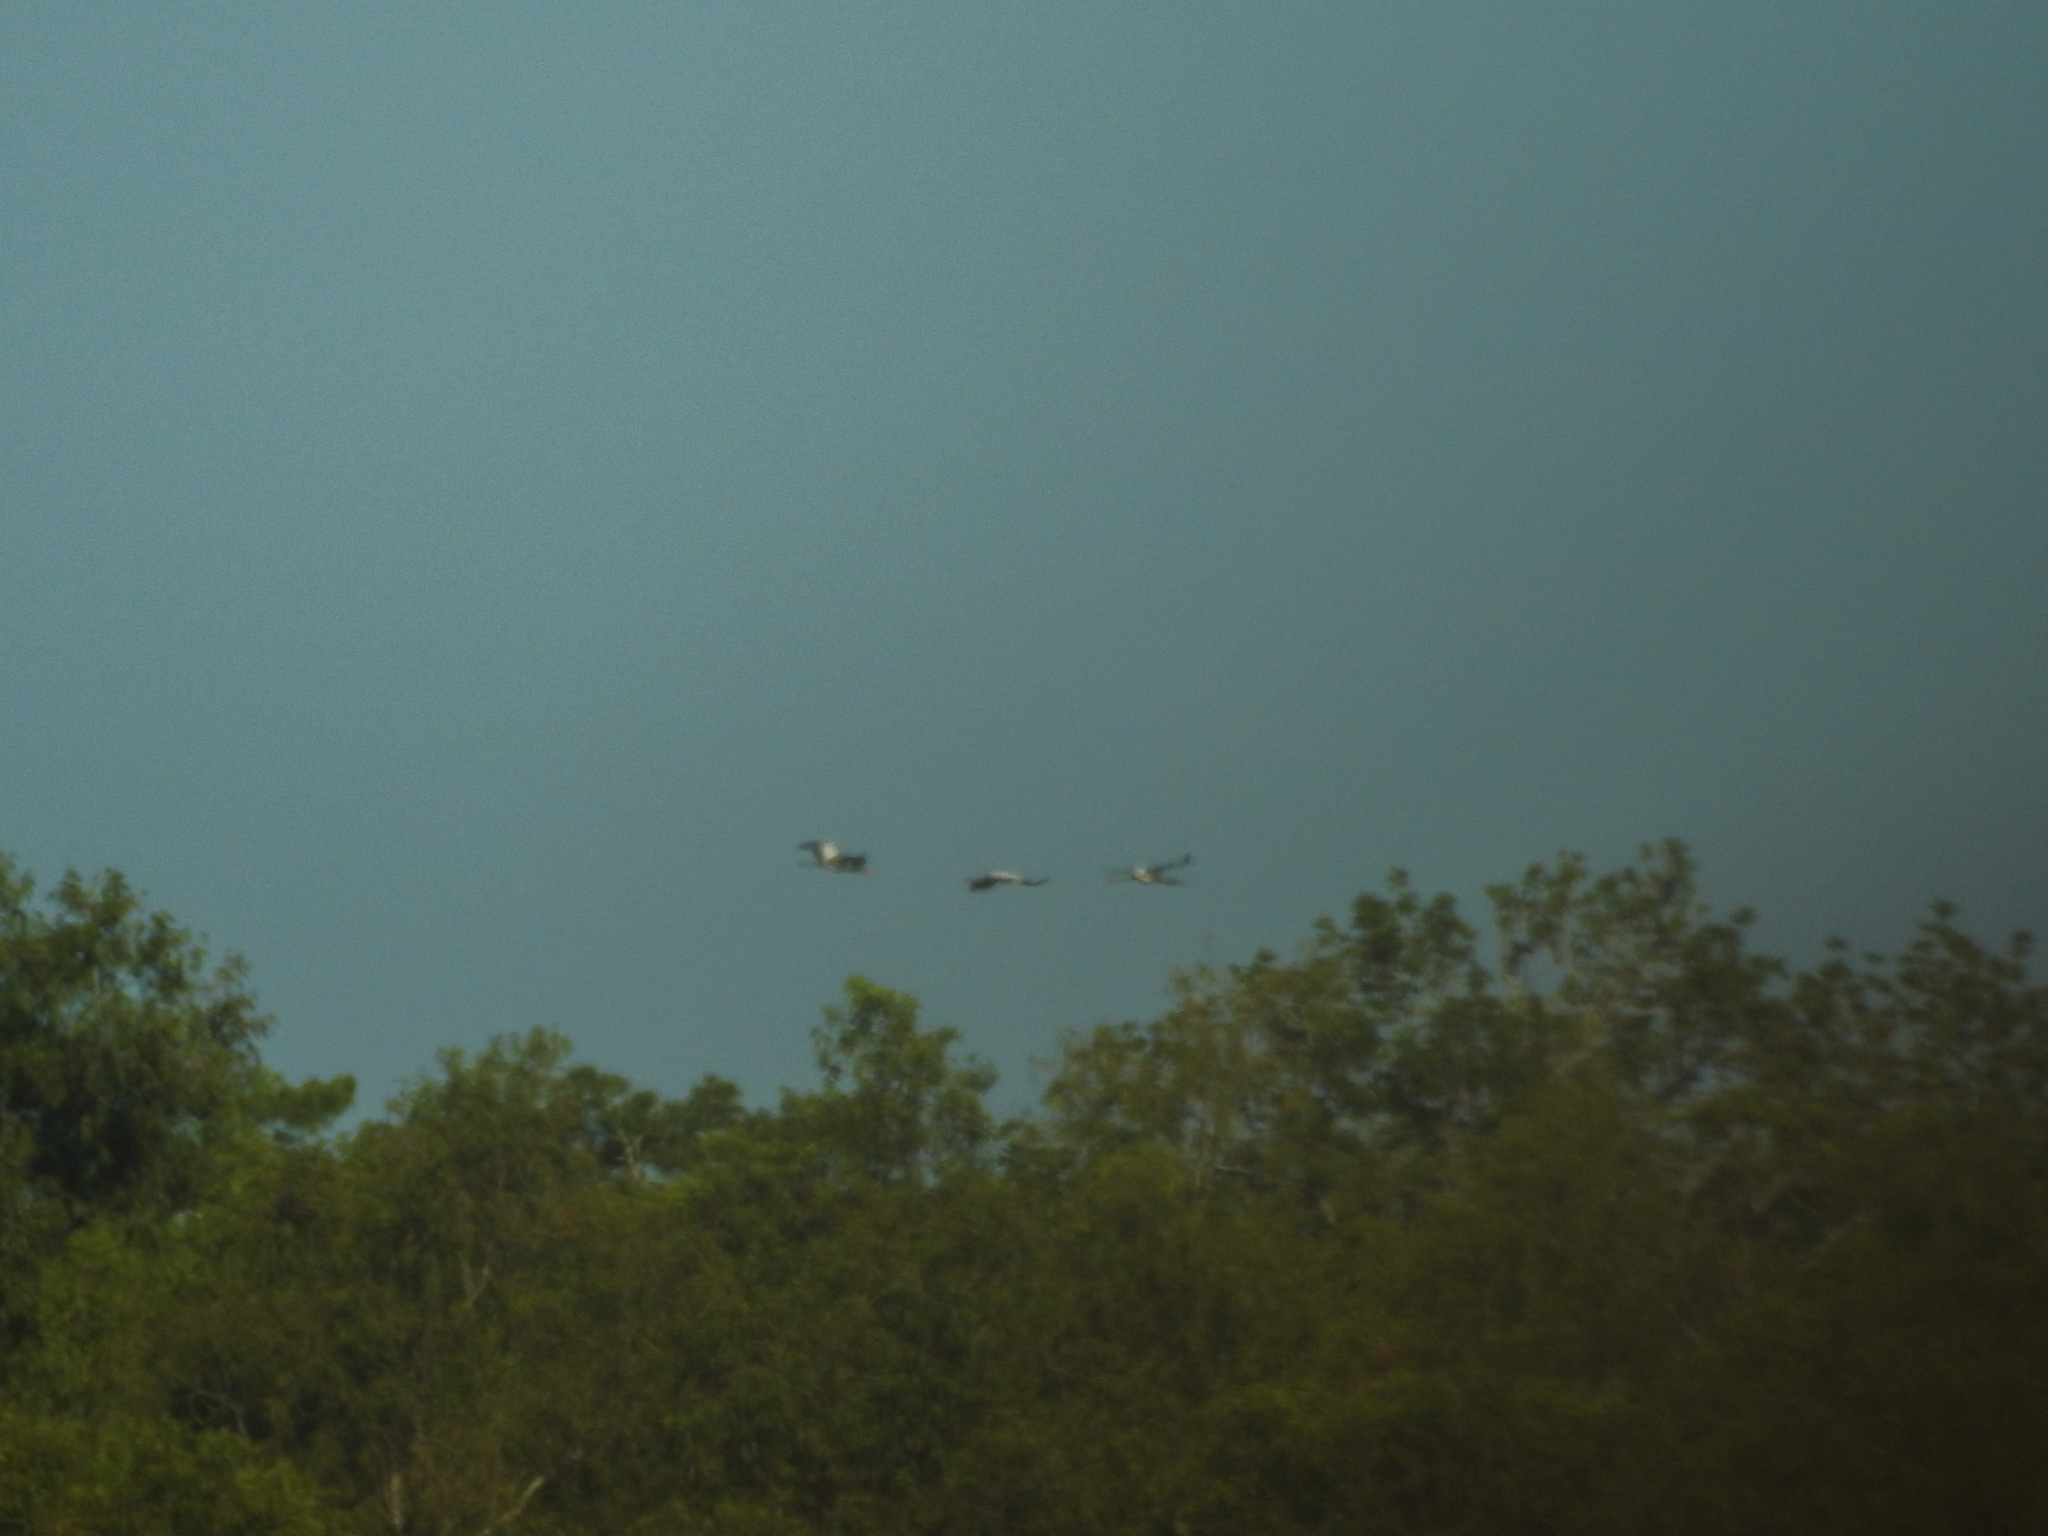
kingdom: Animalia
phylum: Chordata
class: Aves
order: Ciconiiformes
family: Ciconiidae
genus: Mycteria
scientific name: Mycteria americana
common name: Wood stork
